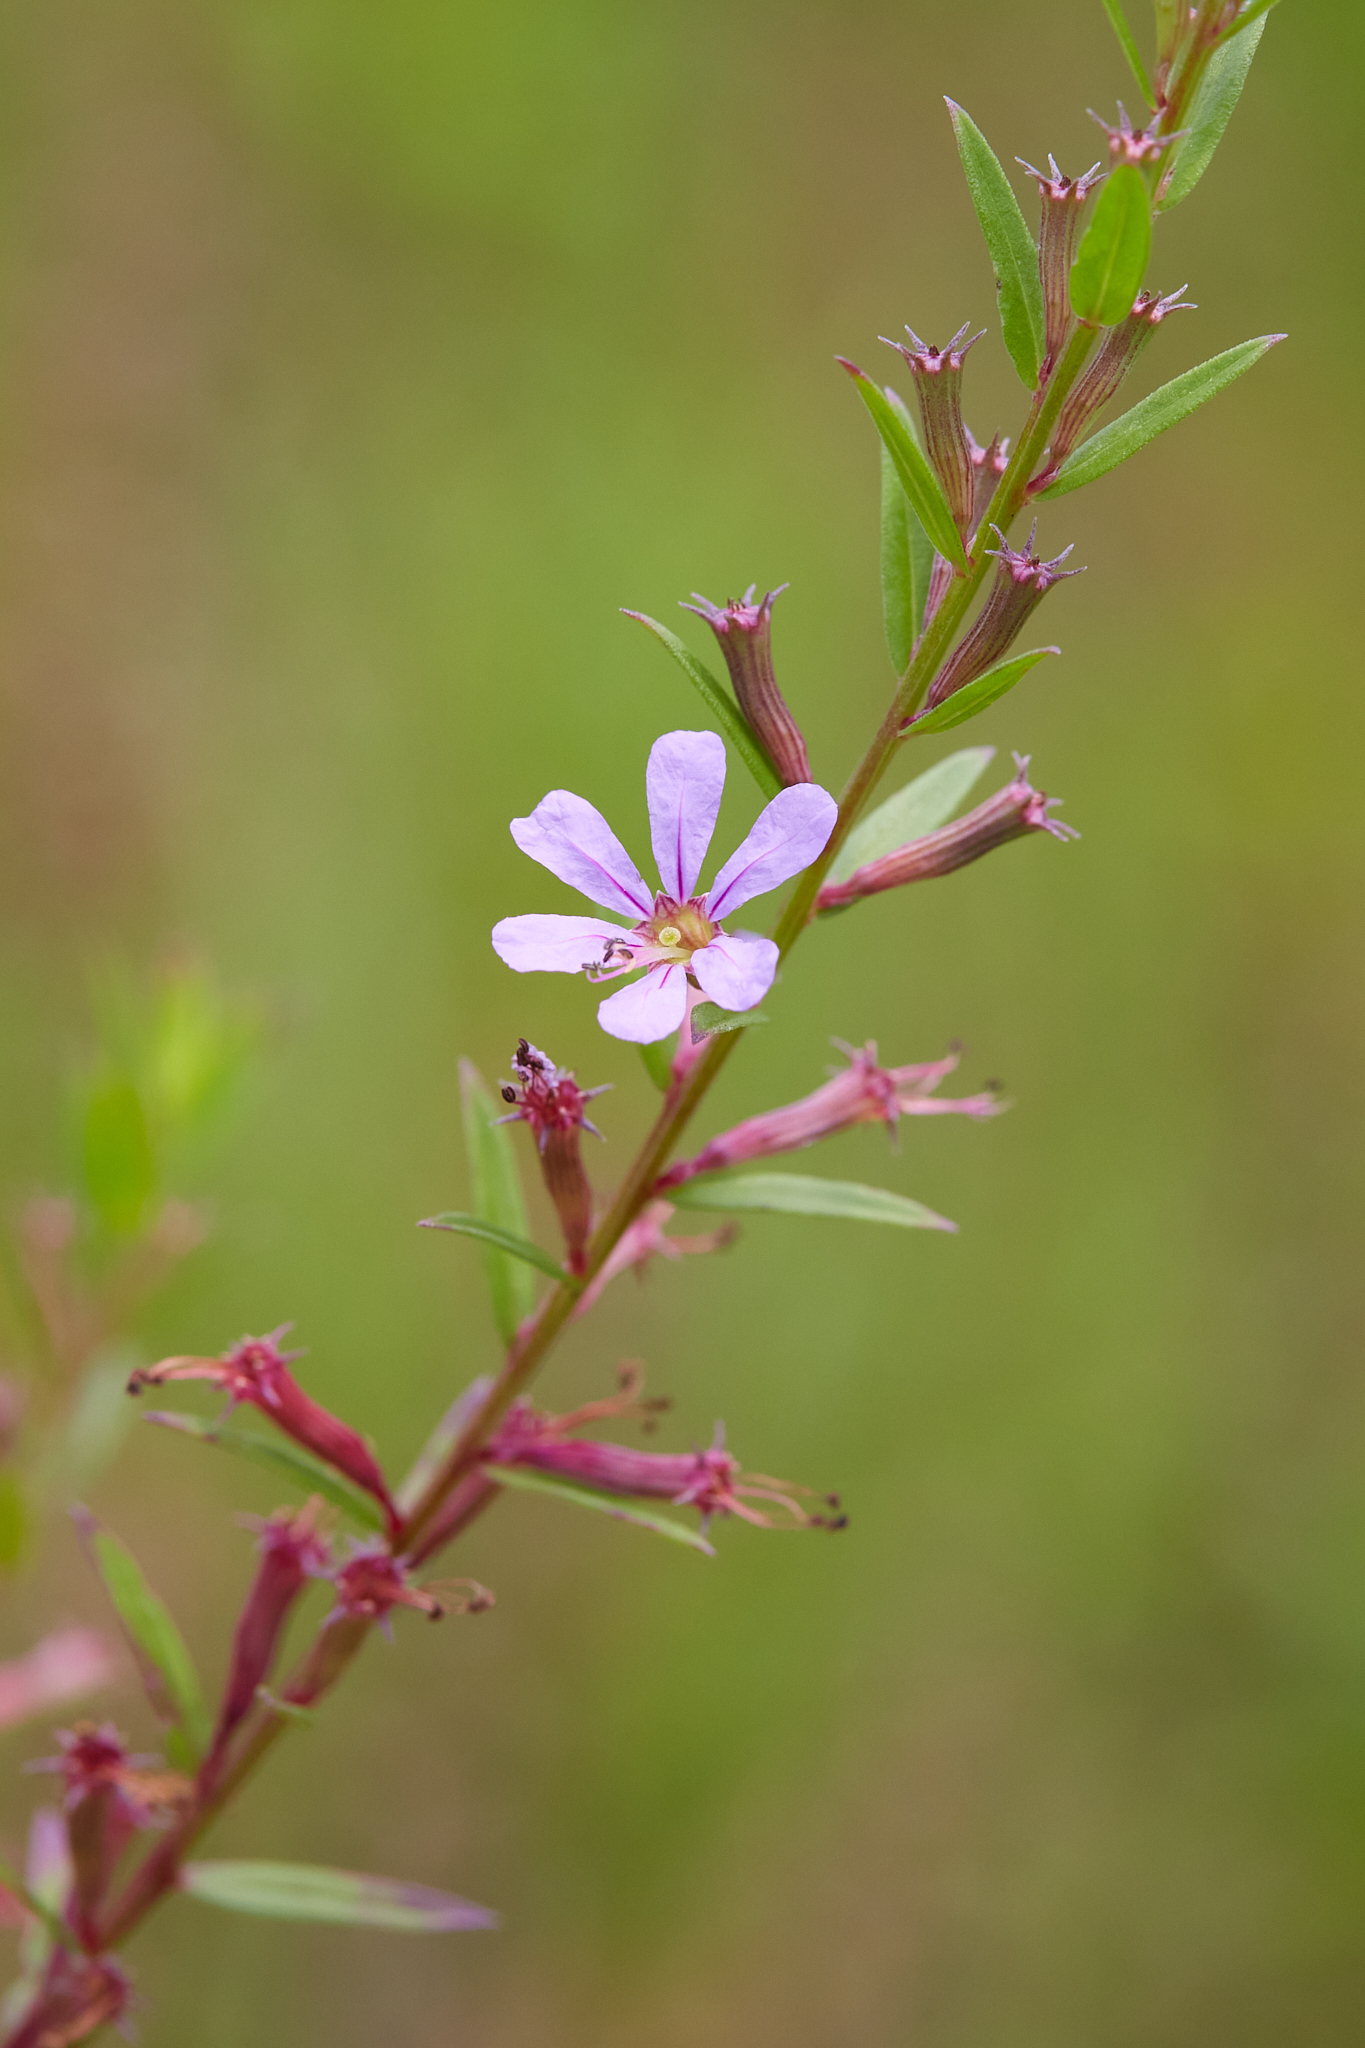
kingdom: Plantae
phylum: Tracheophyta
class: Magnoliopsida
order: Myrtales
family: Lythraceae
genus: Lythrum
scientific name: Lythrum alatum
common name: Winged loosestrife
